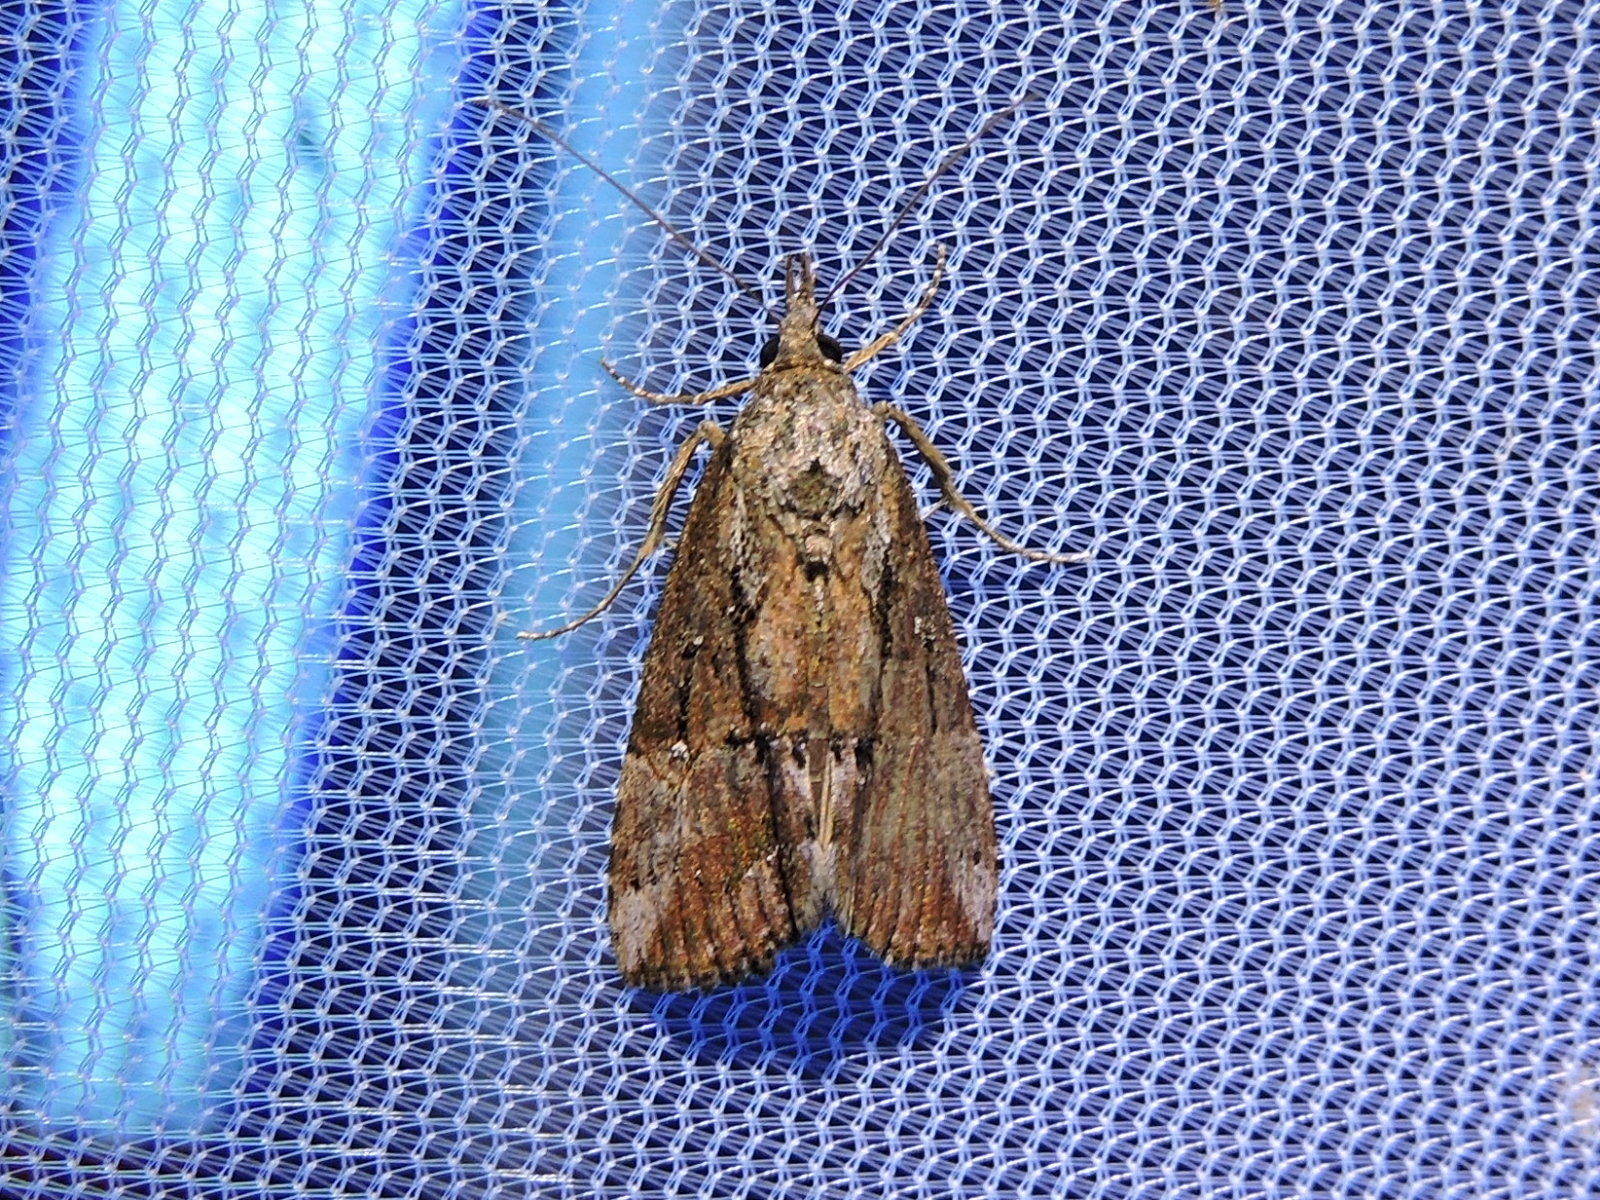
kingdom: Animalia
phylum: Arthropoda
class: Insecta
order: Lepidoptera
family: Erebidae
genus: Hypena
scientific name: Hypena scabra
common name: Green cloverworm
